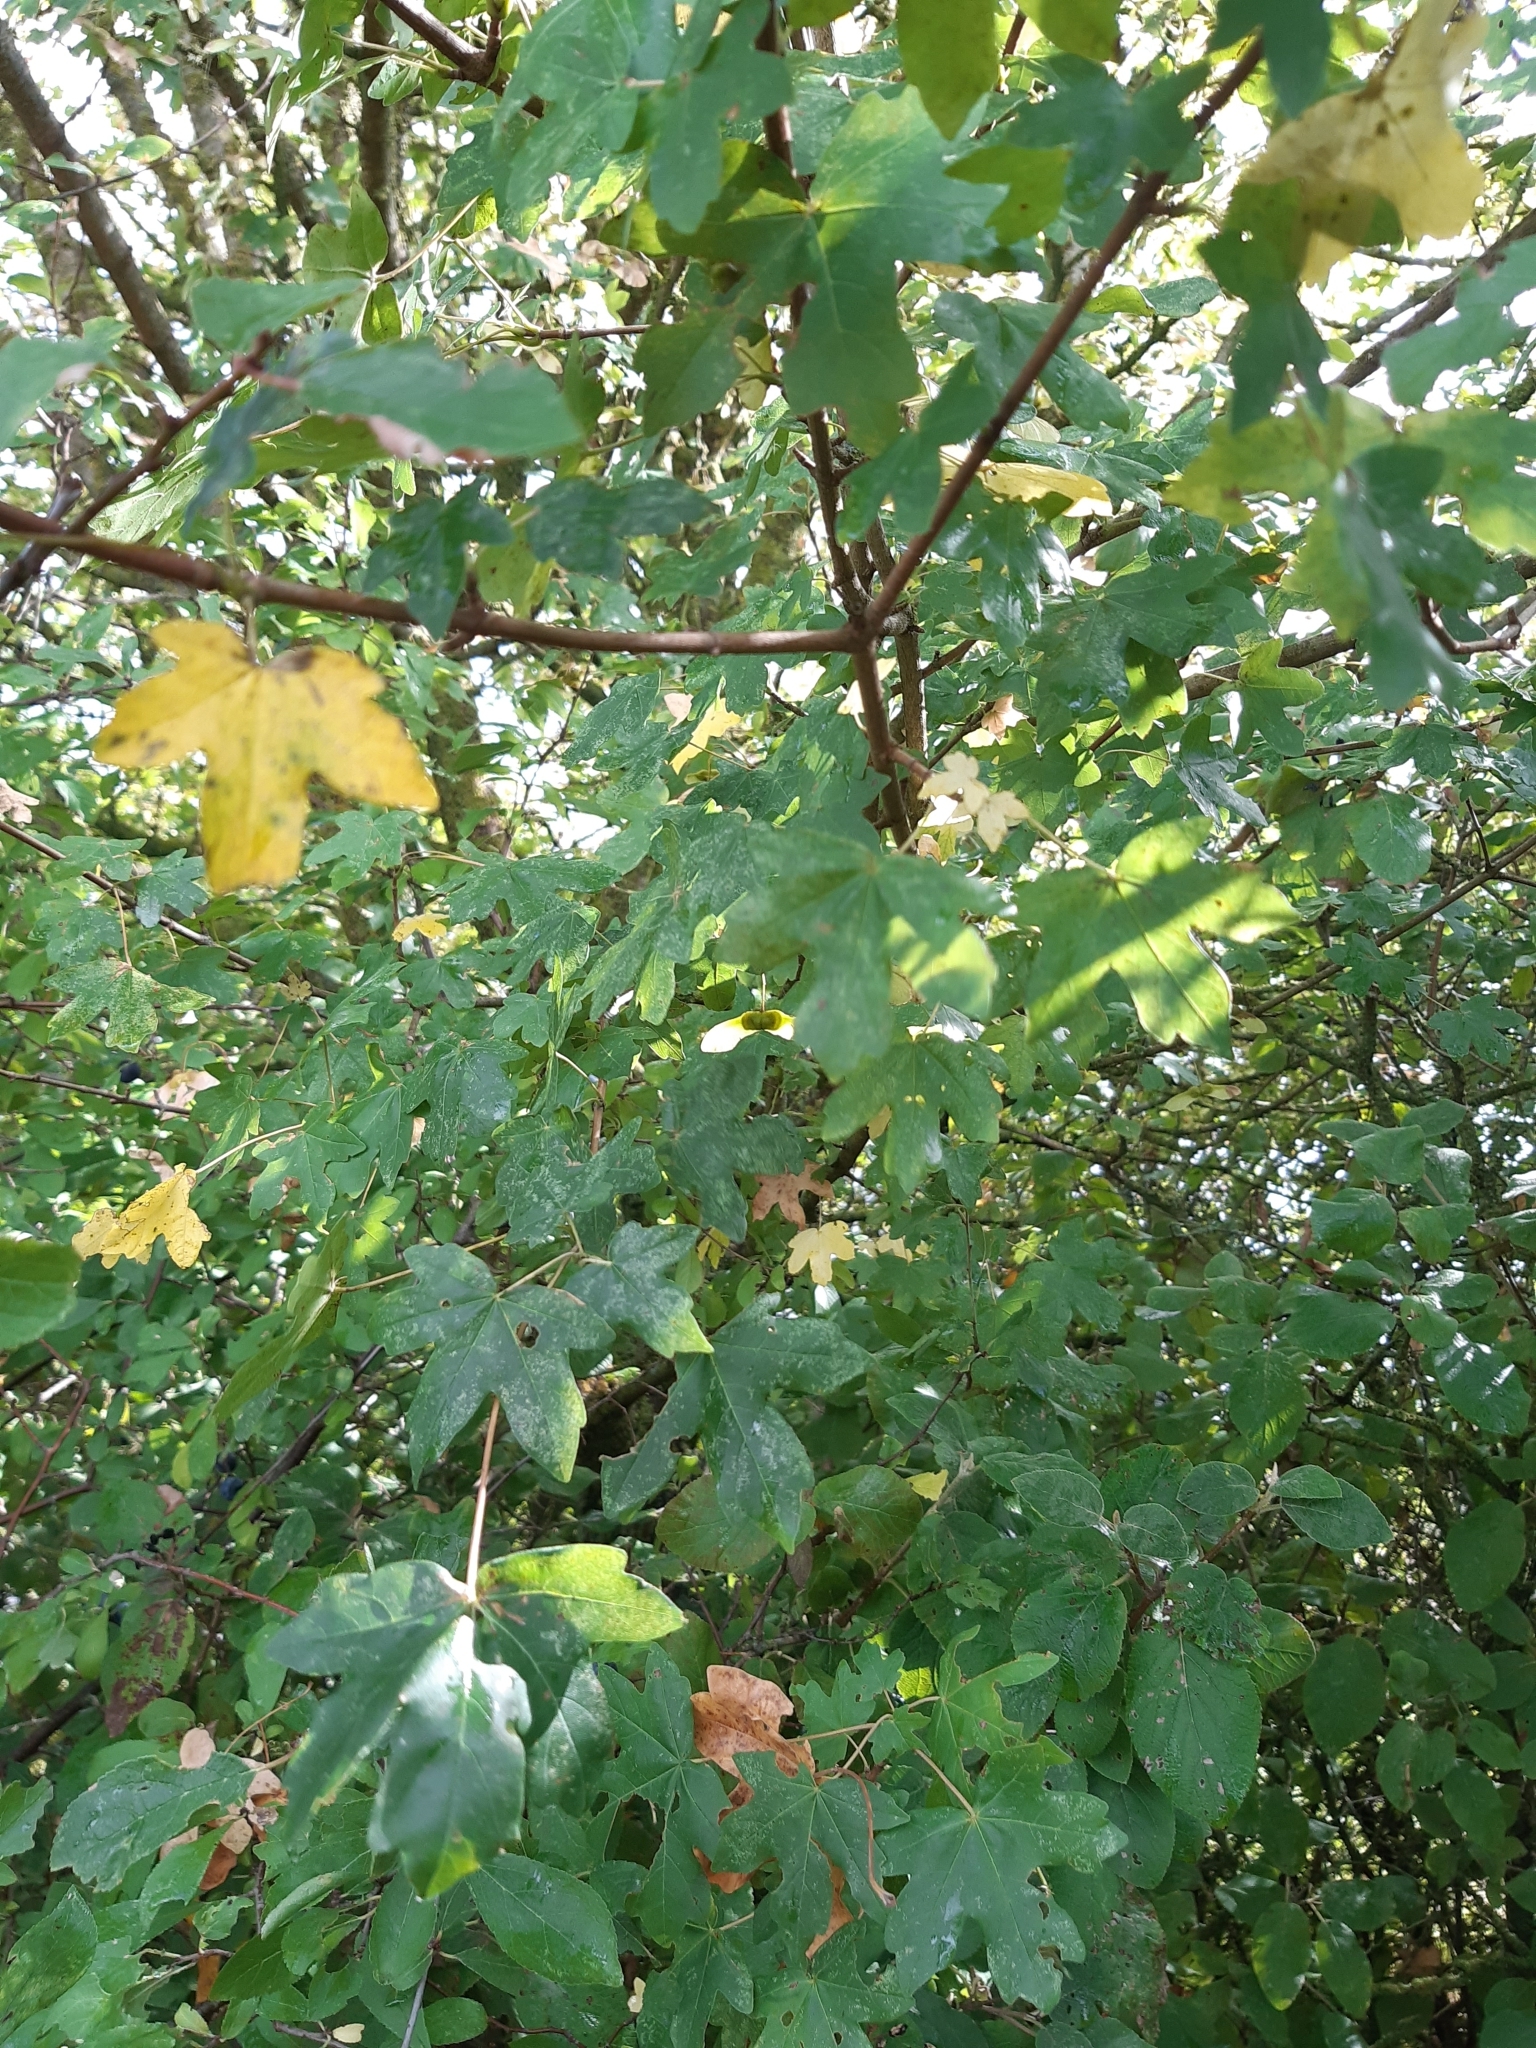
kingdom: Plantae
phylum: Tracheophyta
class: Magnoliopsida
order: Sapindales
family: Sapindaceae
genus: Acer
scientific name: Acer campestre
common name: Field maple
